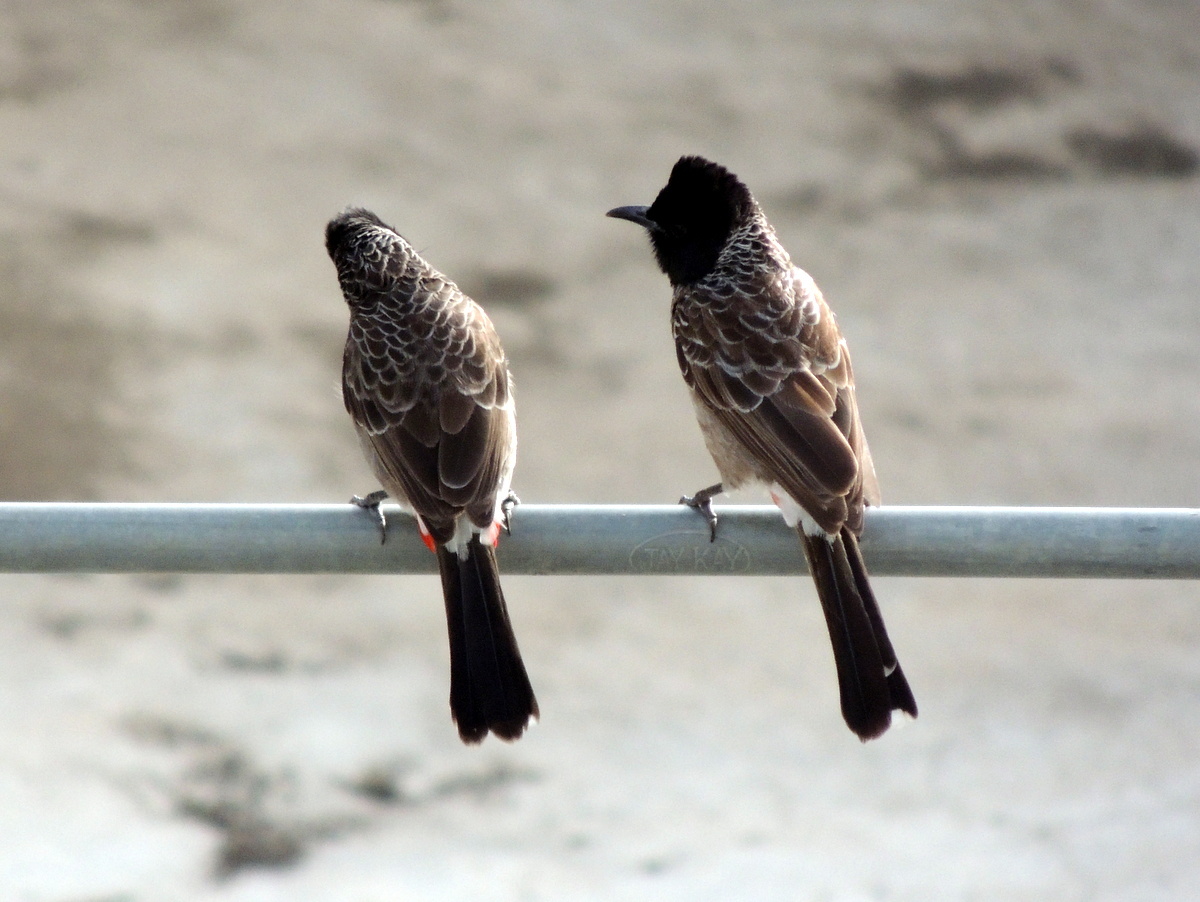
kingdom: Animalia
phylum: Chordata
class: Aves
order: Passeriformes
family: Pycnonotidae
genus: Pycnonotus
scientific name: Pycnonotus cafer
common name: Red-vented bulbul
